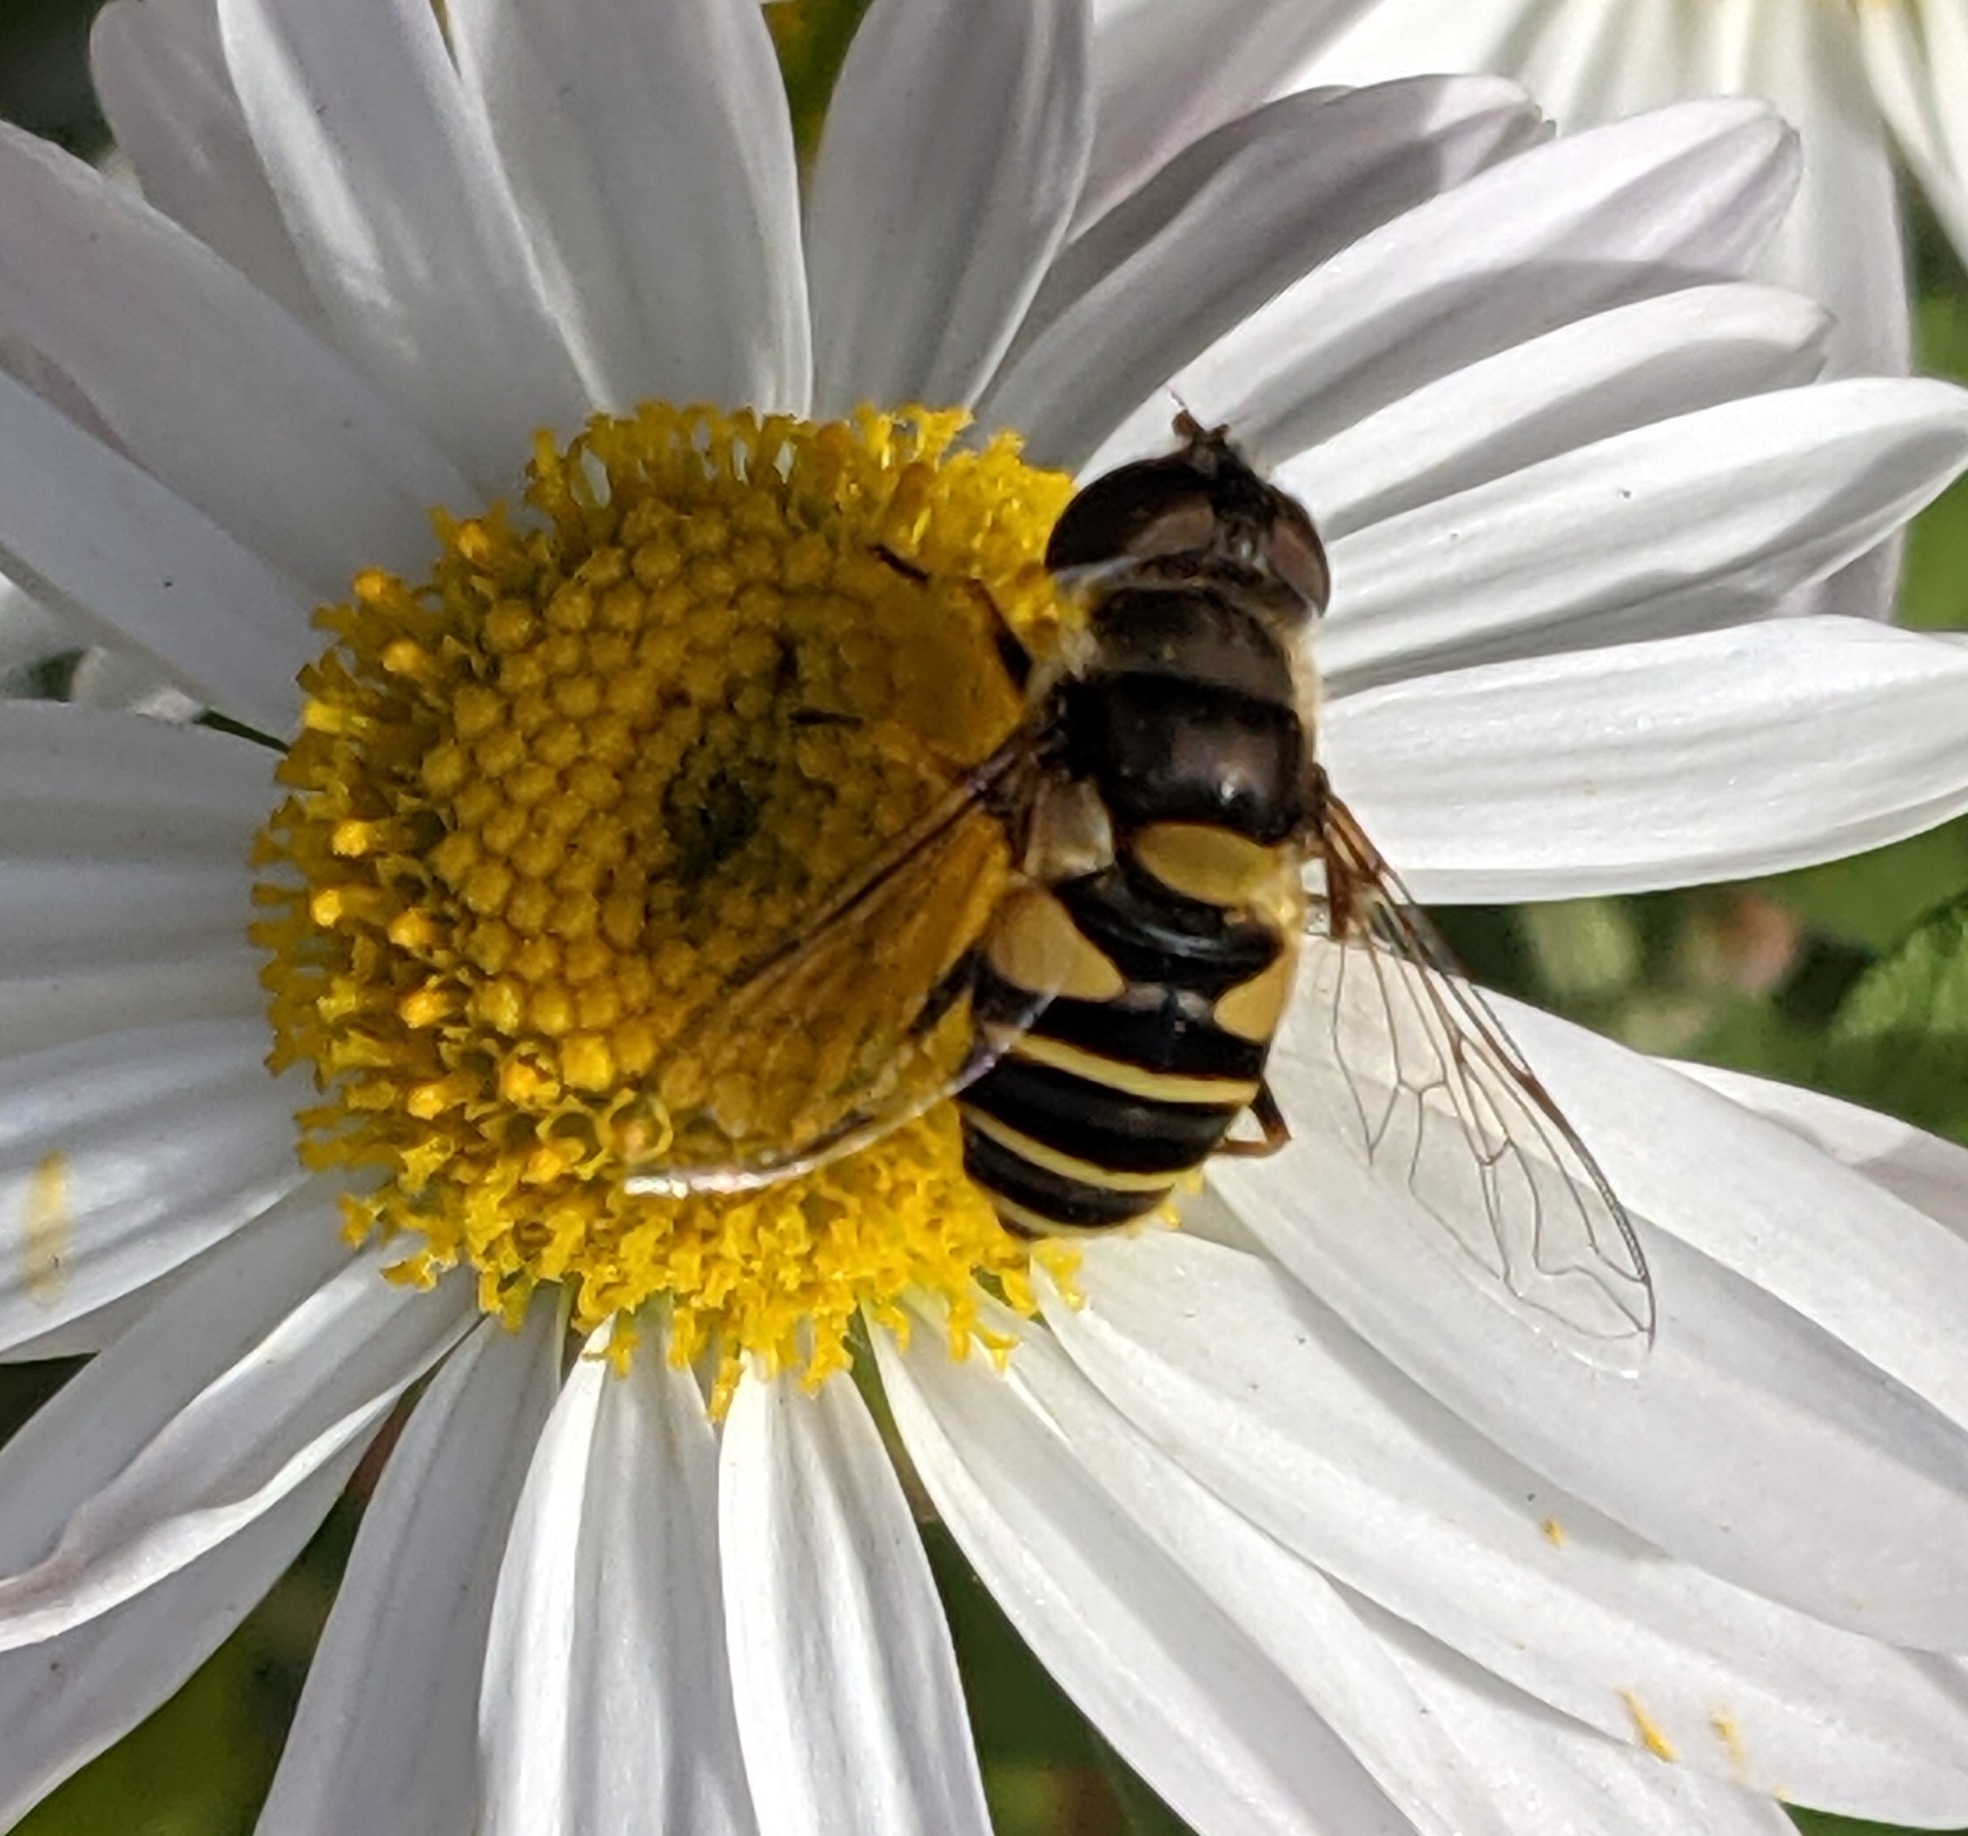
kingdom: Animalia
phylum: Arthropoda
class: Insecta
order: Diptera
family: Syrphidae
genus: Eristalis
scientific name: Eristalis transversa
